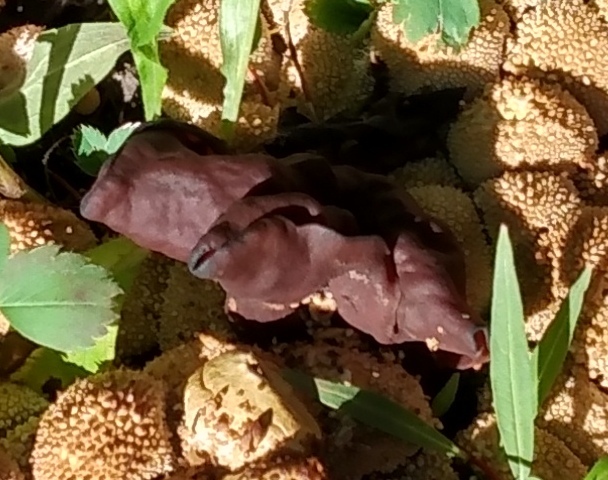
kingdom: Fungi
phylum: Ascomycota
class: Pezizomycetes
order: Pezizales
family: Discinaceae
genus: Gyromitra
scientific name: Gyromitra infula
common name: Pouched false morel
